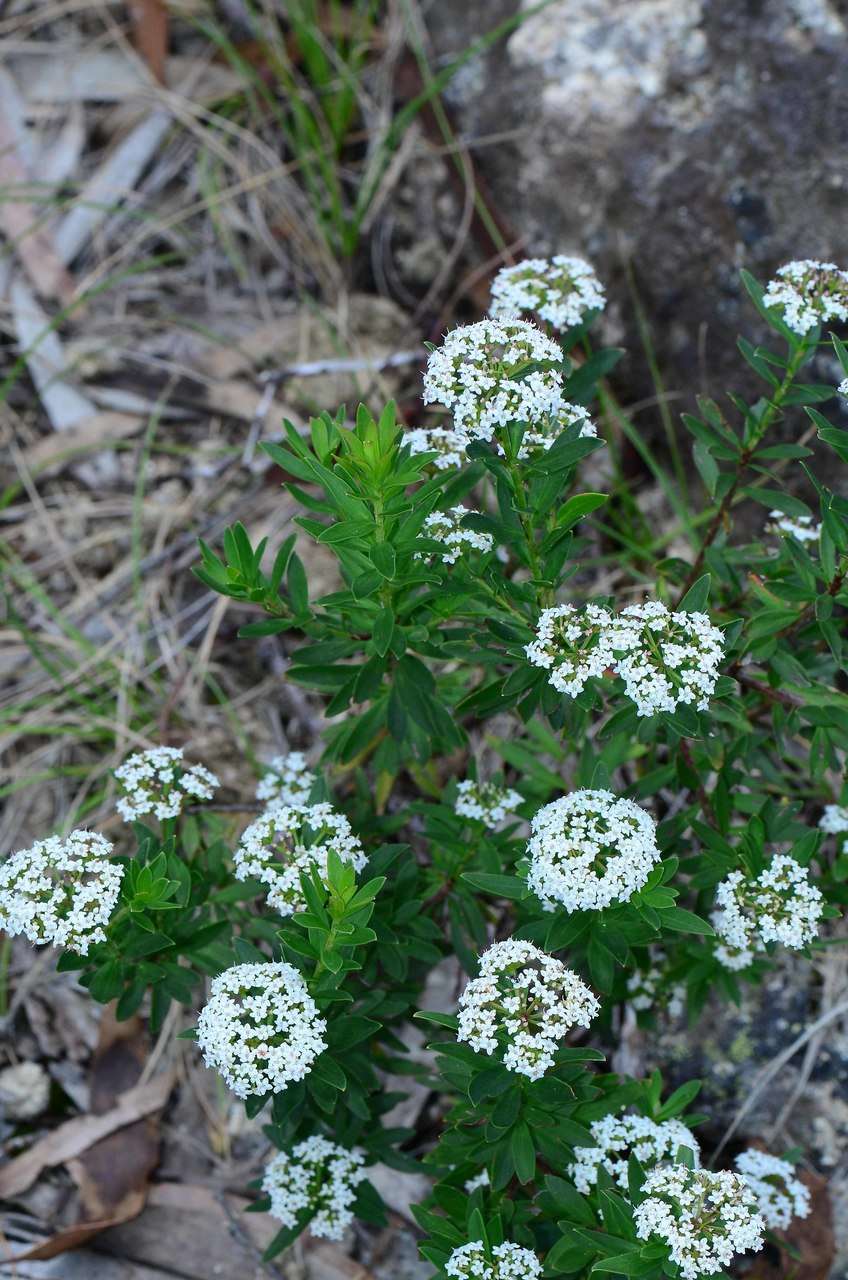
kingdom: Plantae
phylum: Tracheophyta
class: Magnoliopsida
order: Apiales
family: Apiaceae
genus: Platysace
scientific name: Platysace lanceolata
